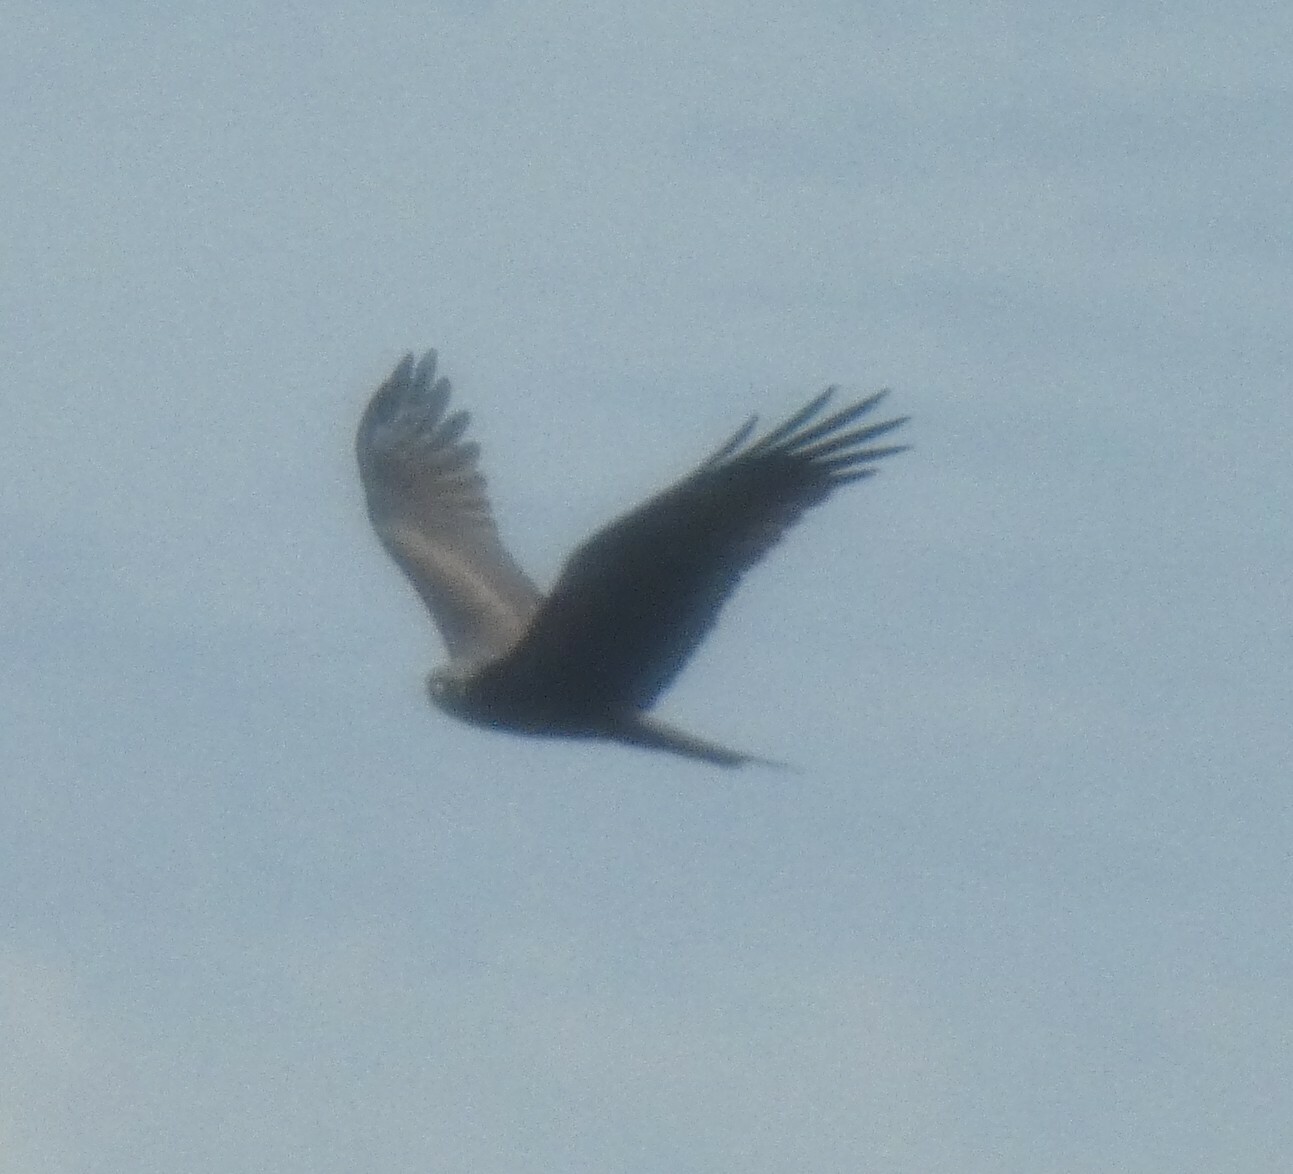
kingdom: Animalia
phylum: Chordata
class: Aves
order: Accipitriformes
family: Accipitridae
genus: Milvus
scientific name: Milvus migrans
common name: Black kite
